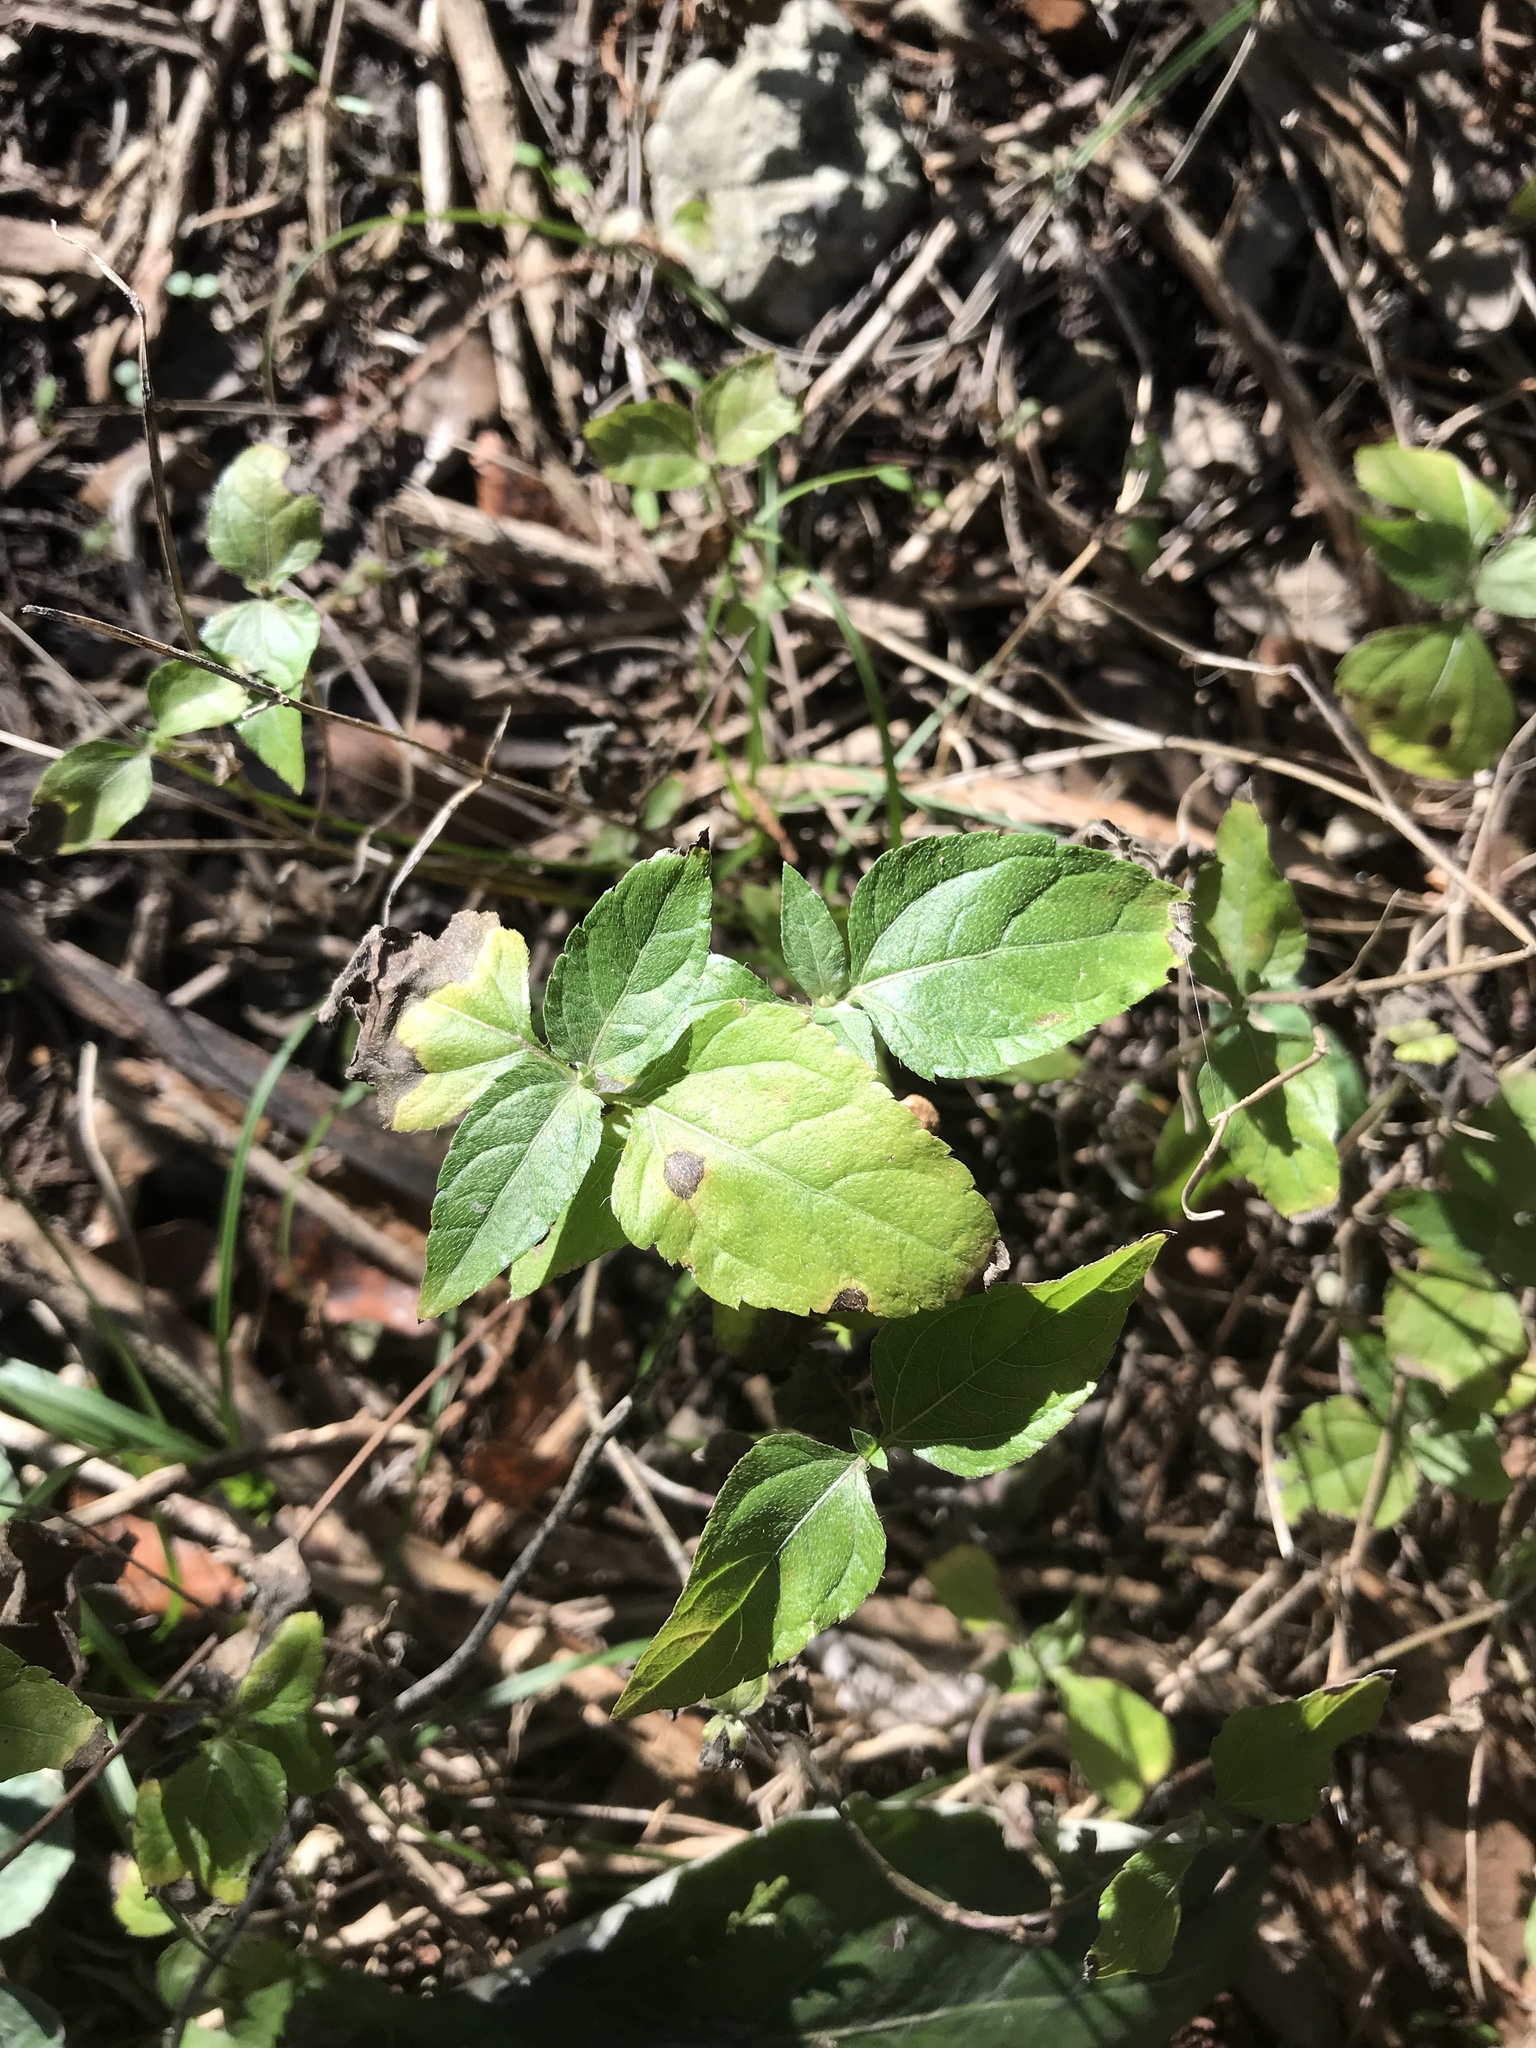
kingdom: Plantae
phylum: Tracheophyta
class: Magnoliopsida
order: Asterales
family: Asteraceae
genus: Calyptocarpus
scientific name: Calyptocarpus vialis
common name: Straggler daisy
